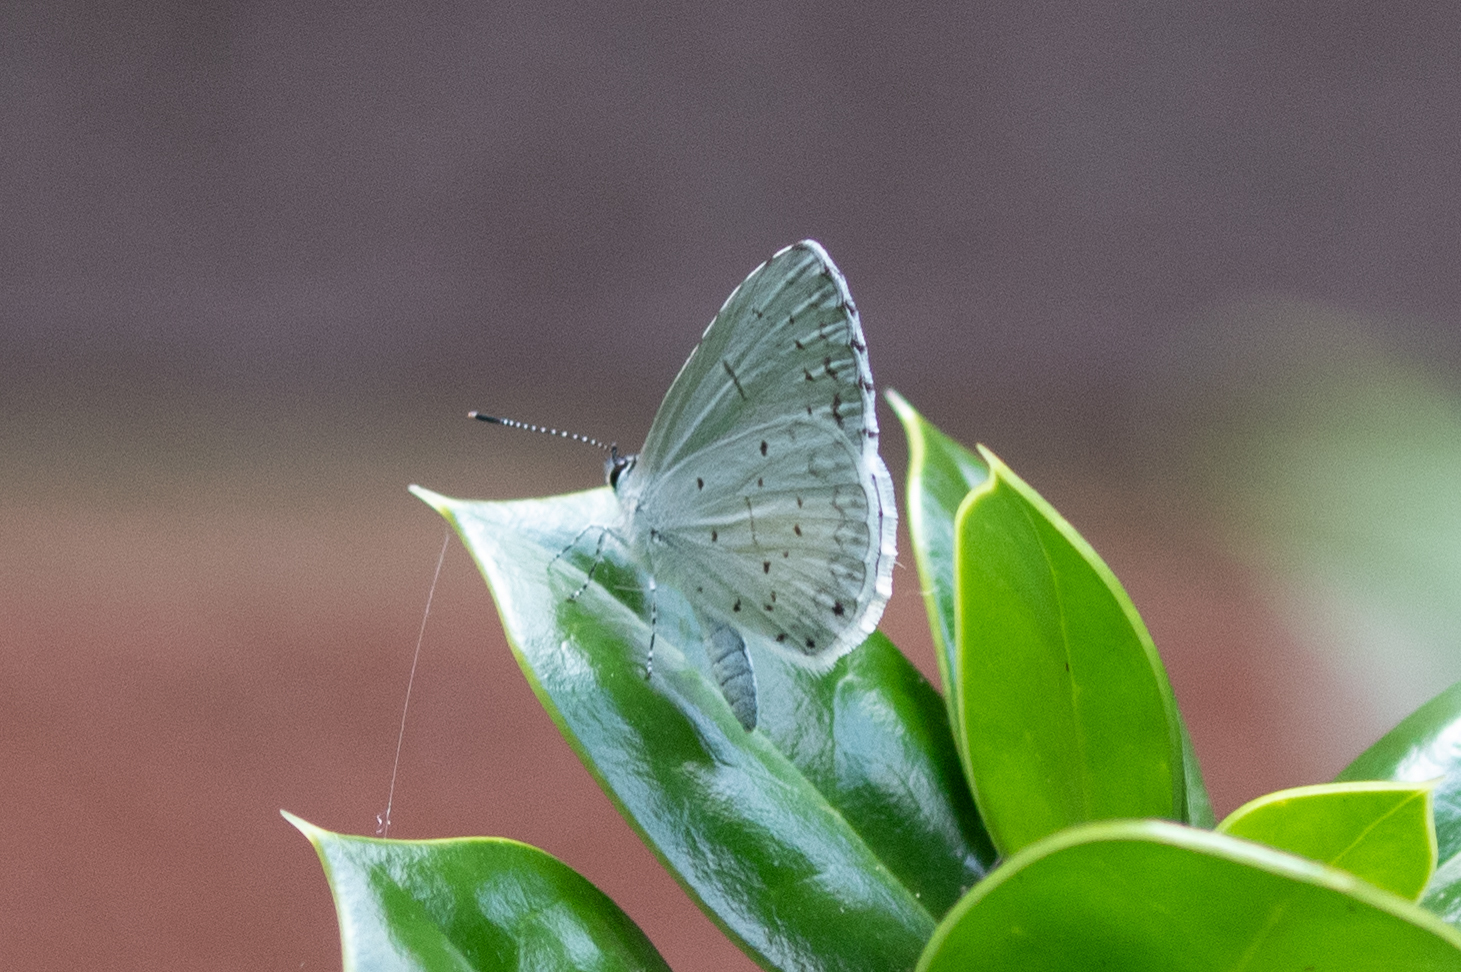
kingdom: Animalia
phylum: Arthropoda
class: Insecta
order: Lepidoptera
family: Lycaenidae
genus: Cyaniris
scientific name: Cyaniris neglecta
